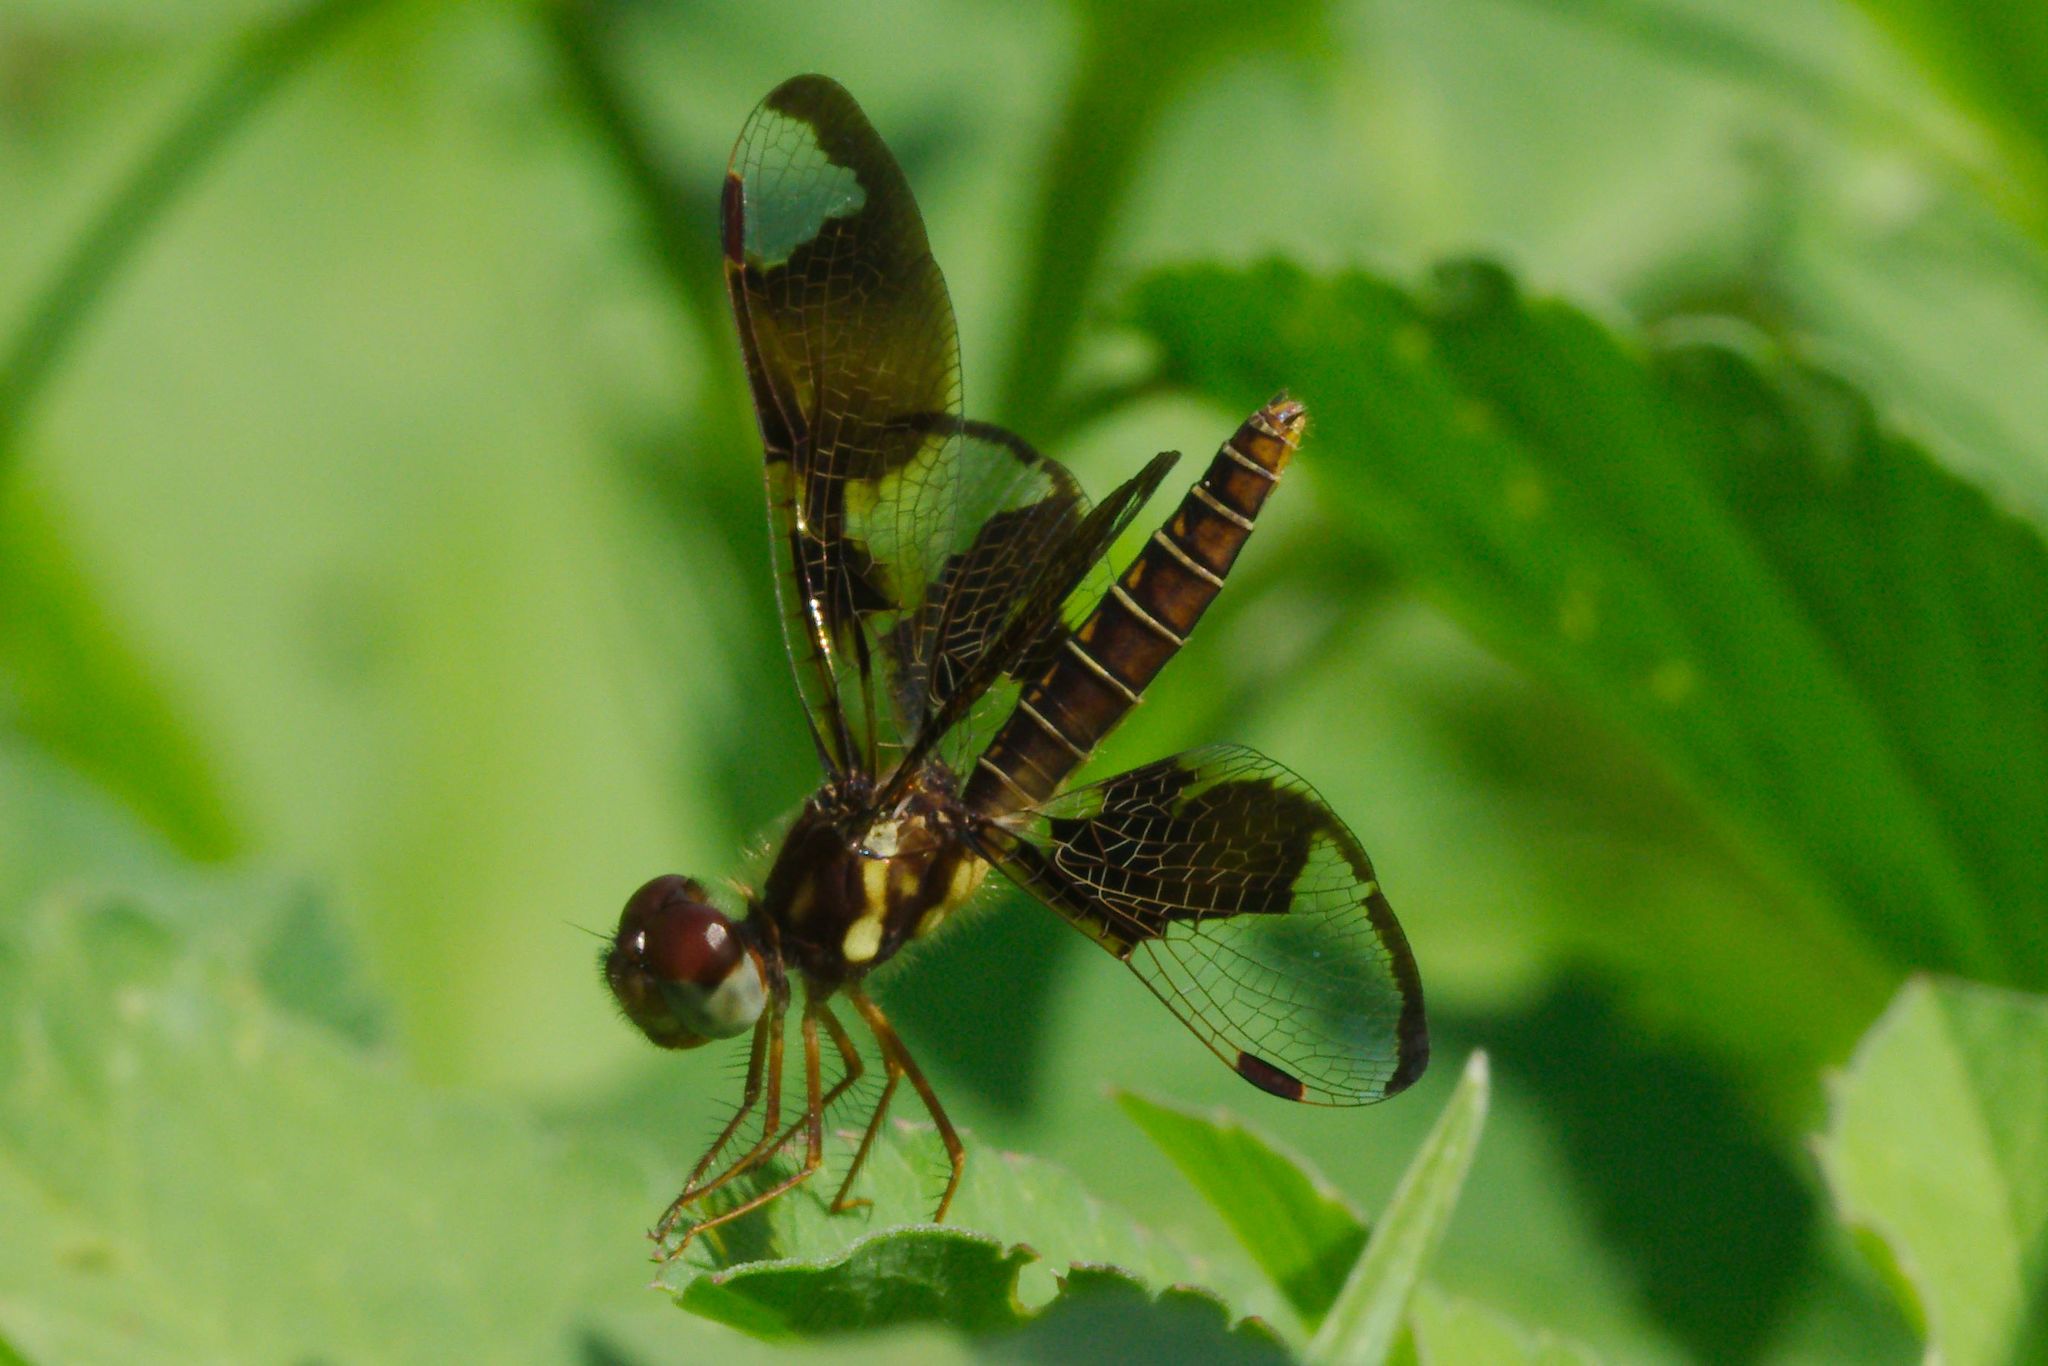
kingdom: Animalia
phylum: Arthropoda
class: Insecta
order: Odonata
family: Libellulidae
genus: Perithemis
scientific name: Perithemis tenera
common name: Eastern amberwing
